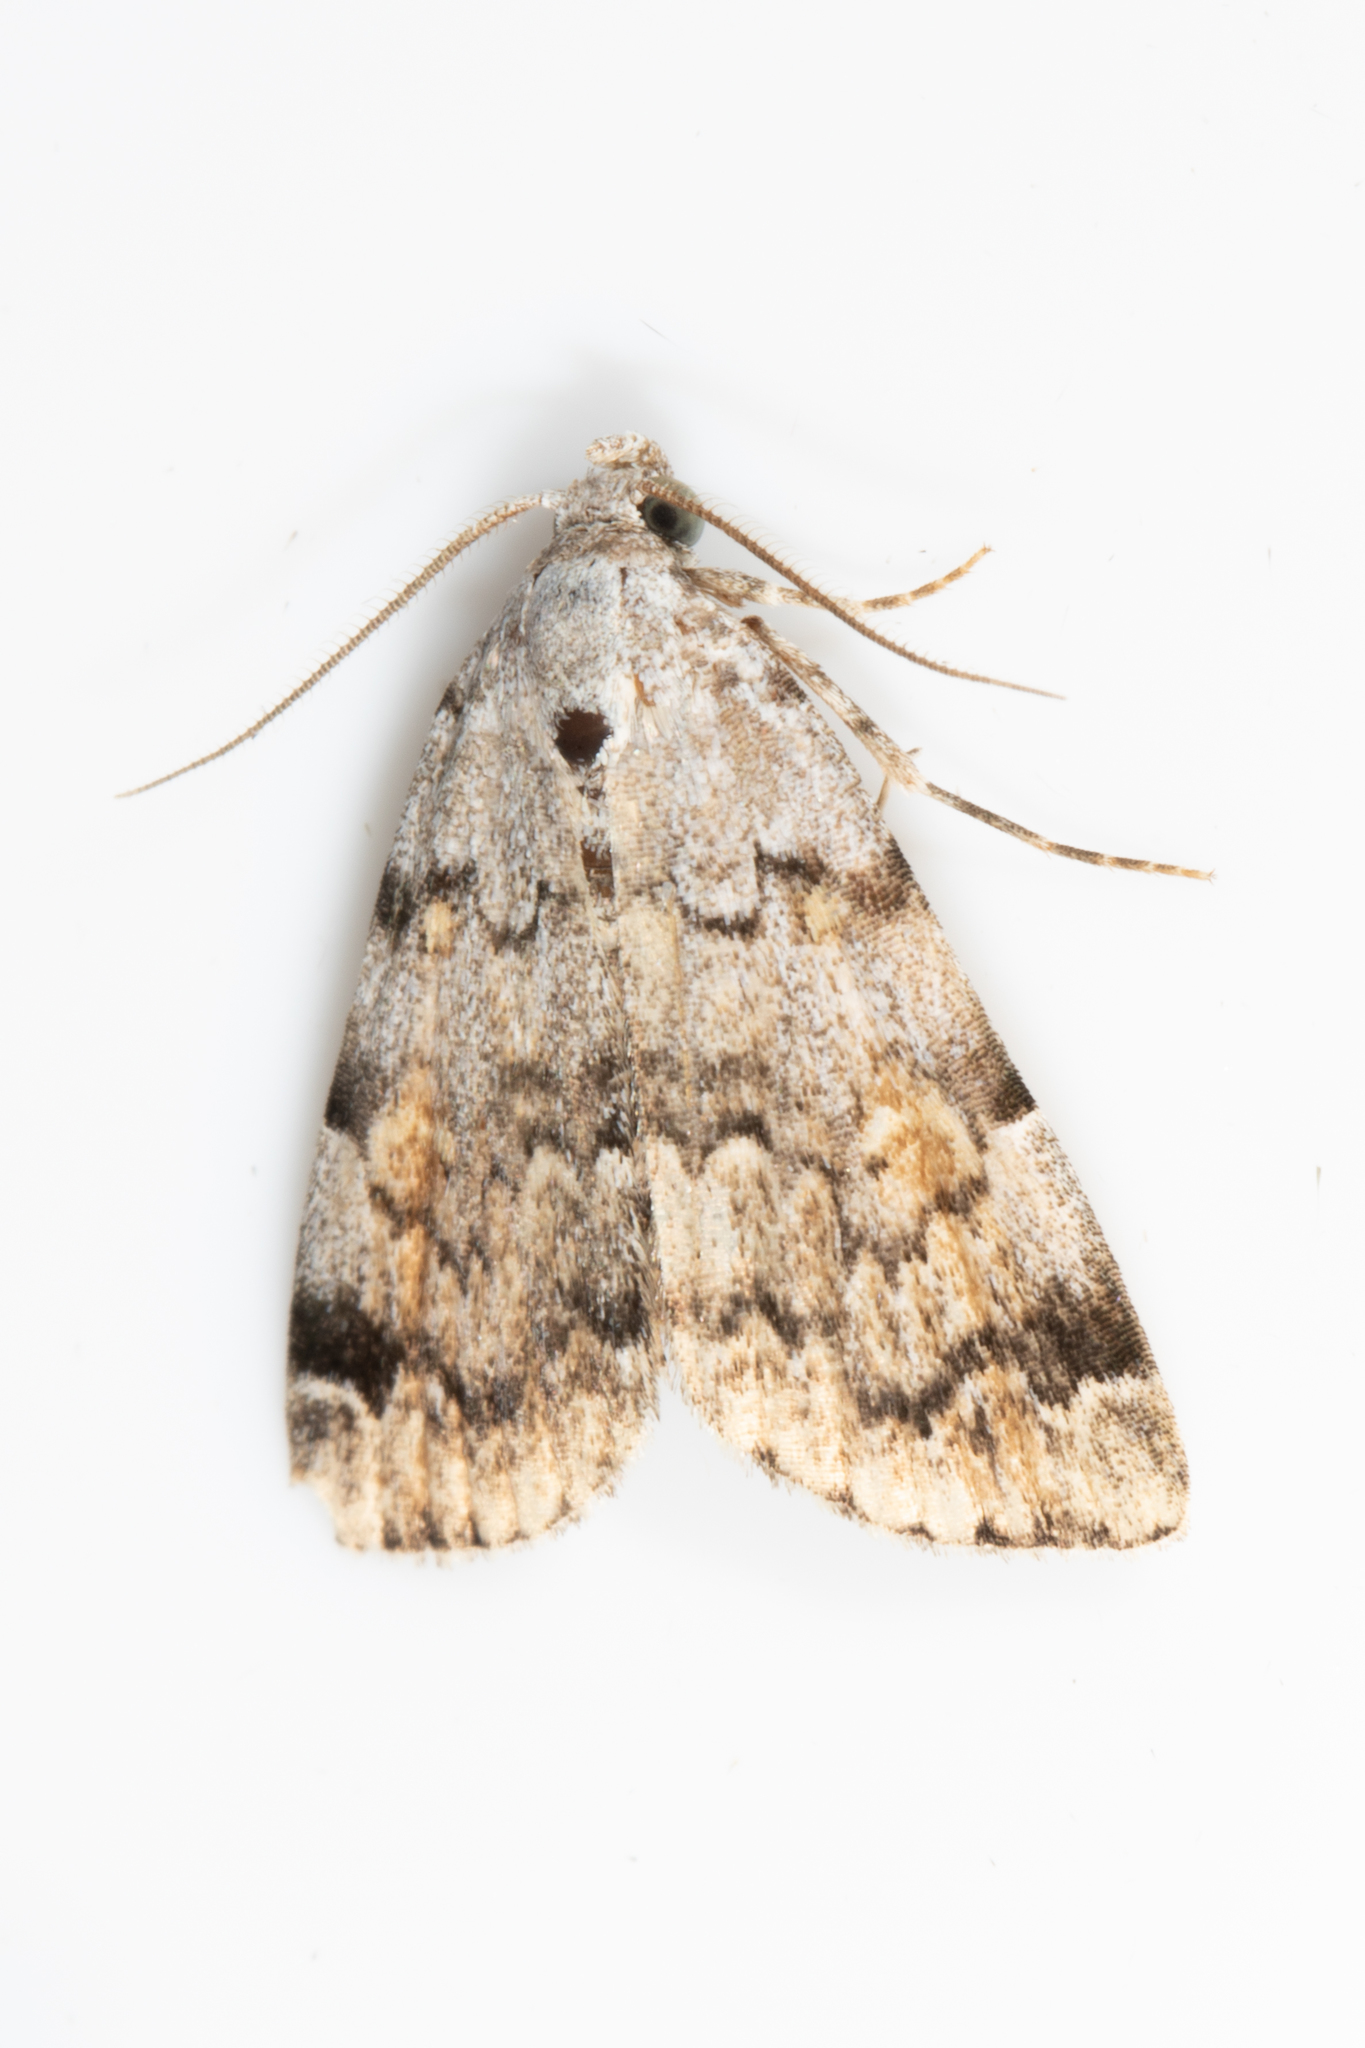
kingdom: Animalia
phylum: Arthropoda
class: Insecta
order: Lepidoptera
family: Erebidae
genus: Idia
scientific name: Idia americalis
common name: American idia moth
